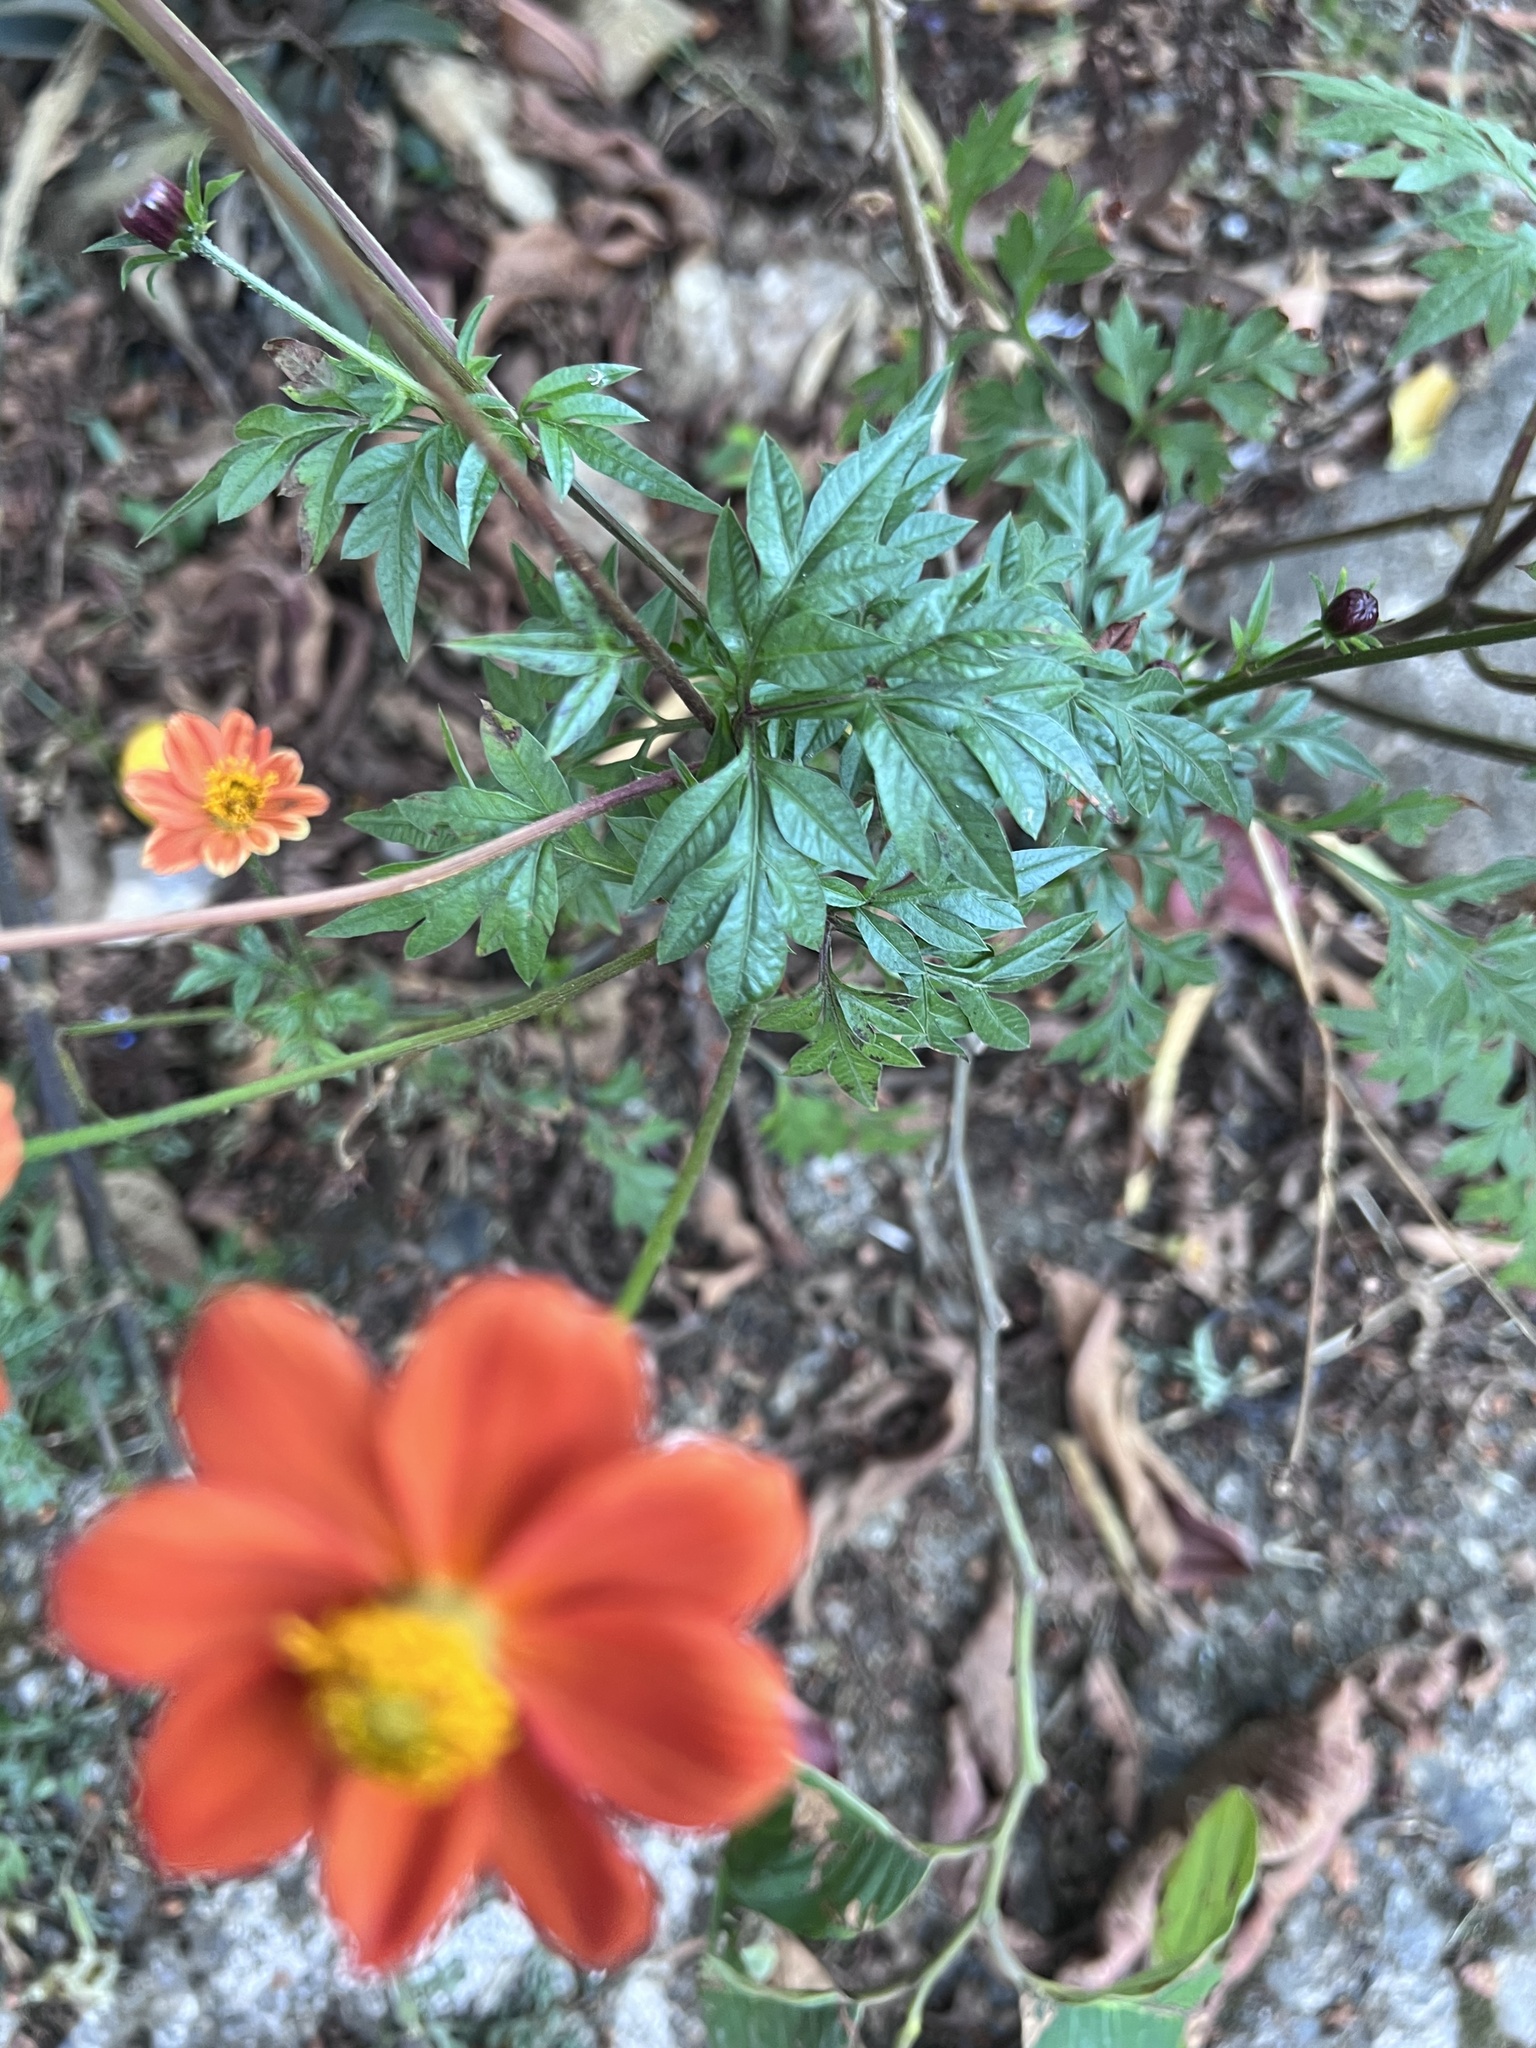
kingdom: Plantae
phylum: Tracheophyta
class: Magnoliopsida
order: Asterales
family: Asteraceae
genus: Cosmos
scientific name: Cosmos sulphureus
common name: Sulphur cosmos
